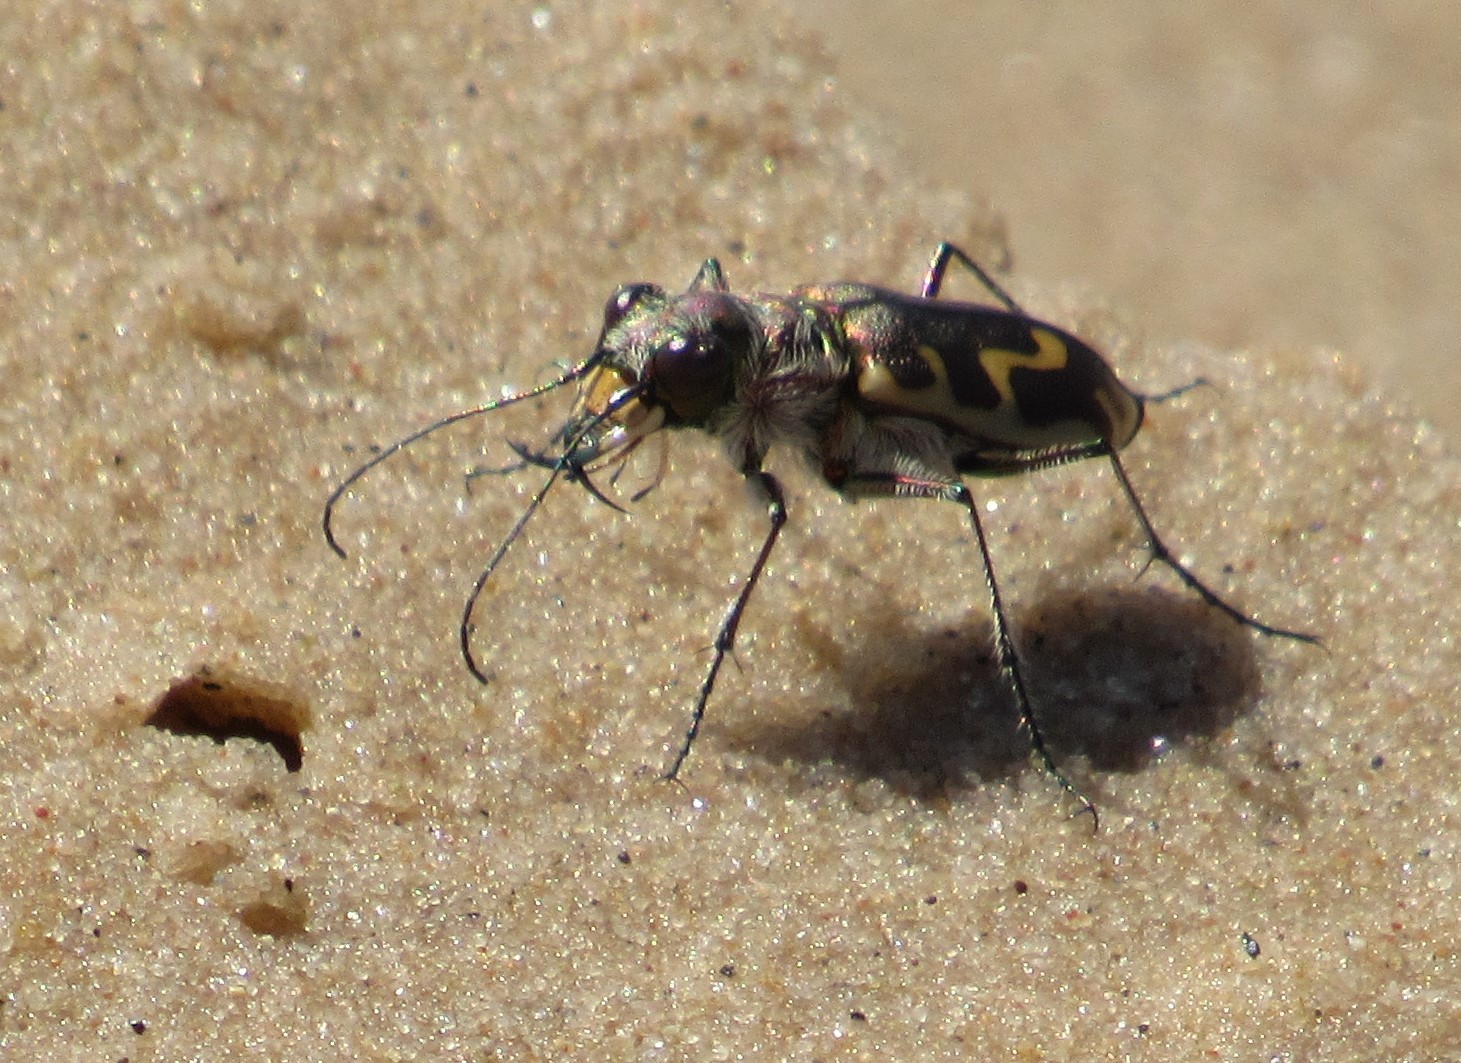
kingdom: Animalia
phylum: Arthropoda
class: Insecta
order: Coleoptera
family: Carabidae
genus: Cicindela
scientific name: Cicindela hirticollis
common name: Hairy-necked tiger beetle
